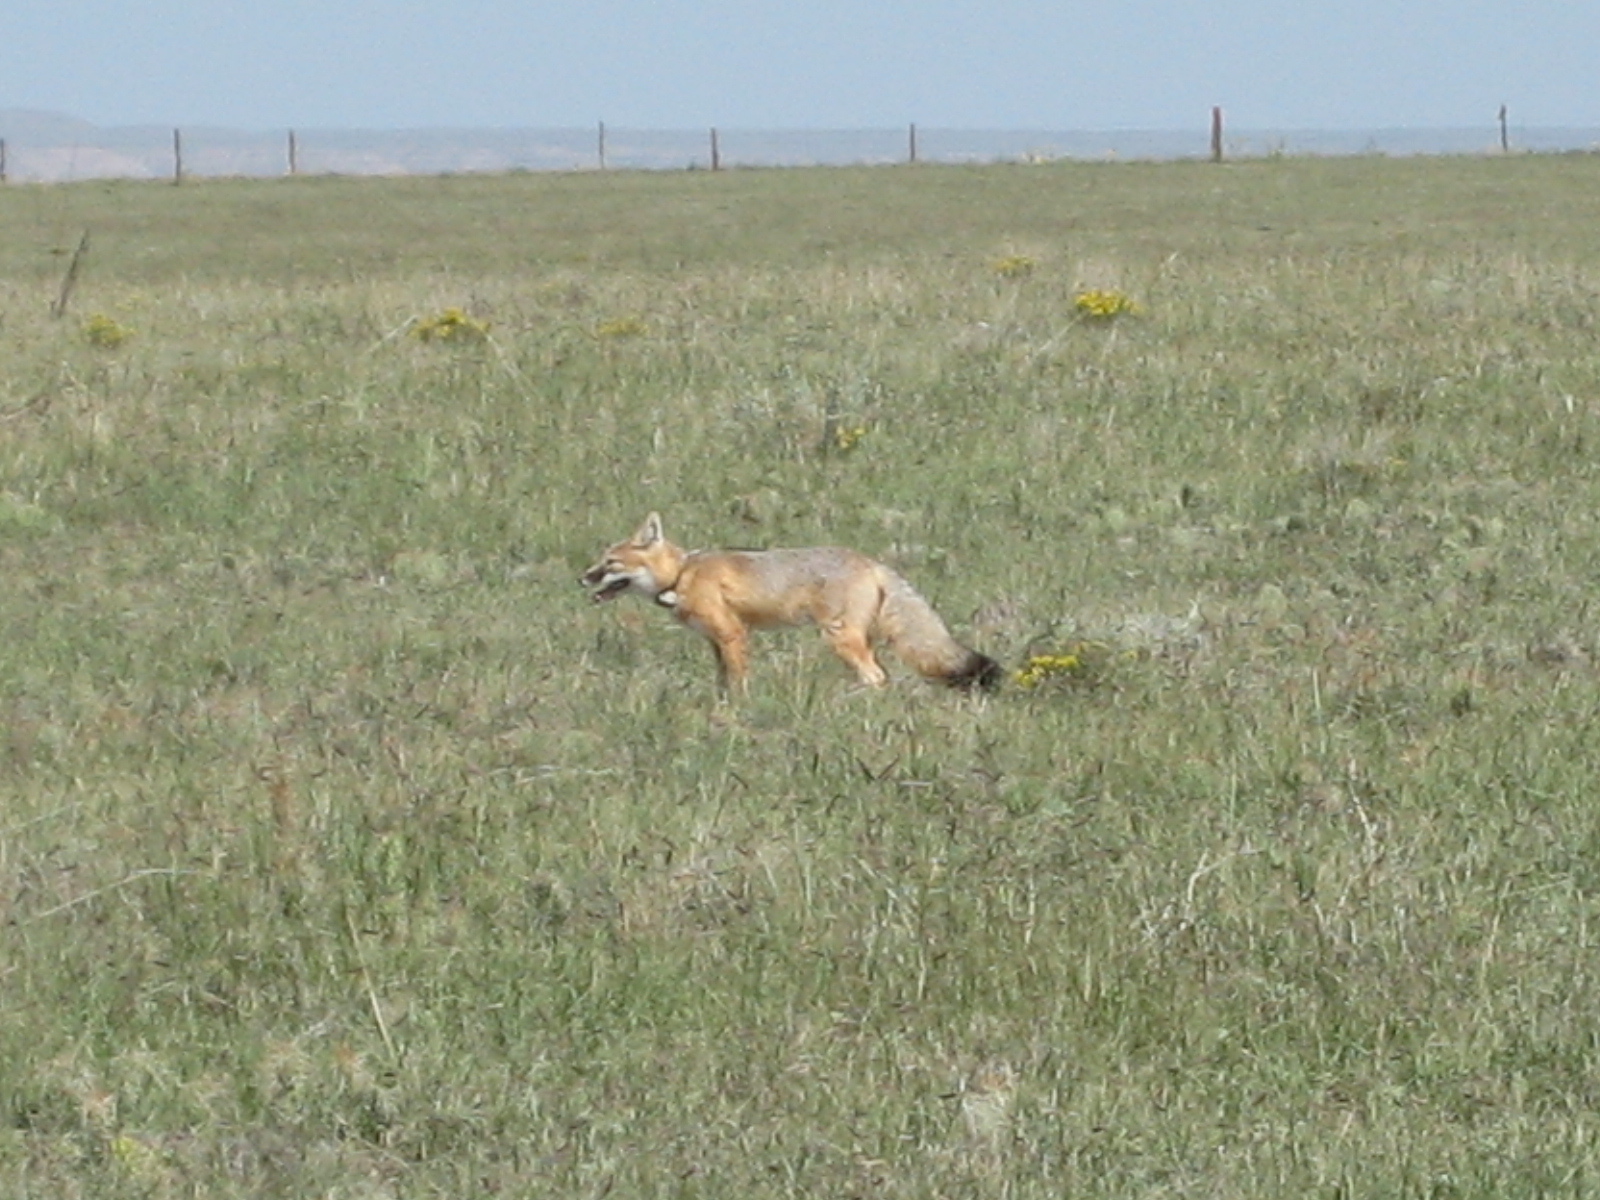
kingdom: Animalia
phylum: Chordata
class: Mammalia
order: Carnivora
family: Canidae
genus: Vulpes
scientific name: Vulpes velox
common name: Swift fox
